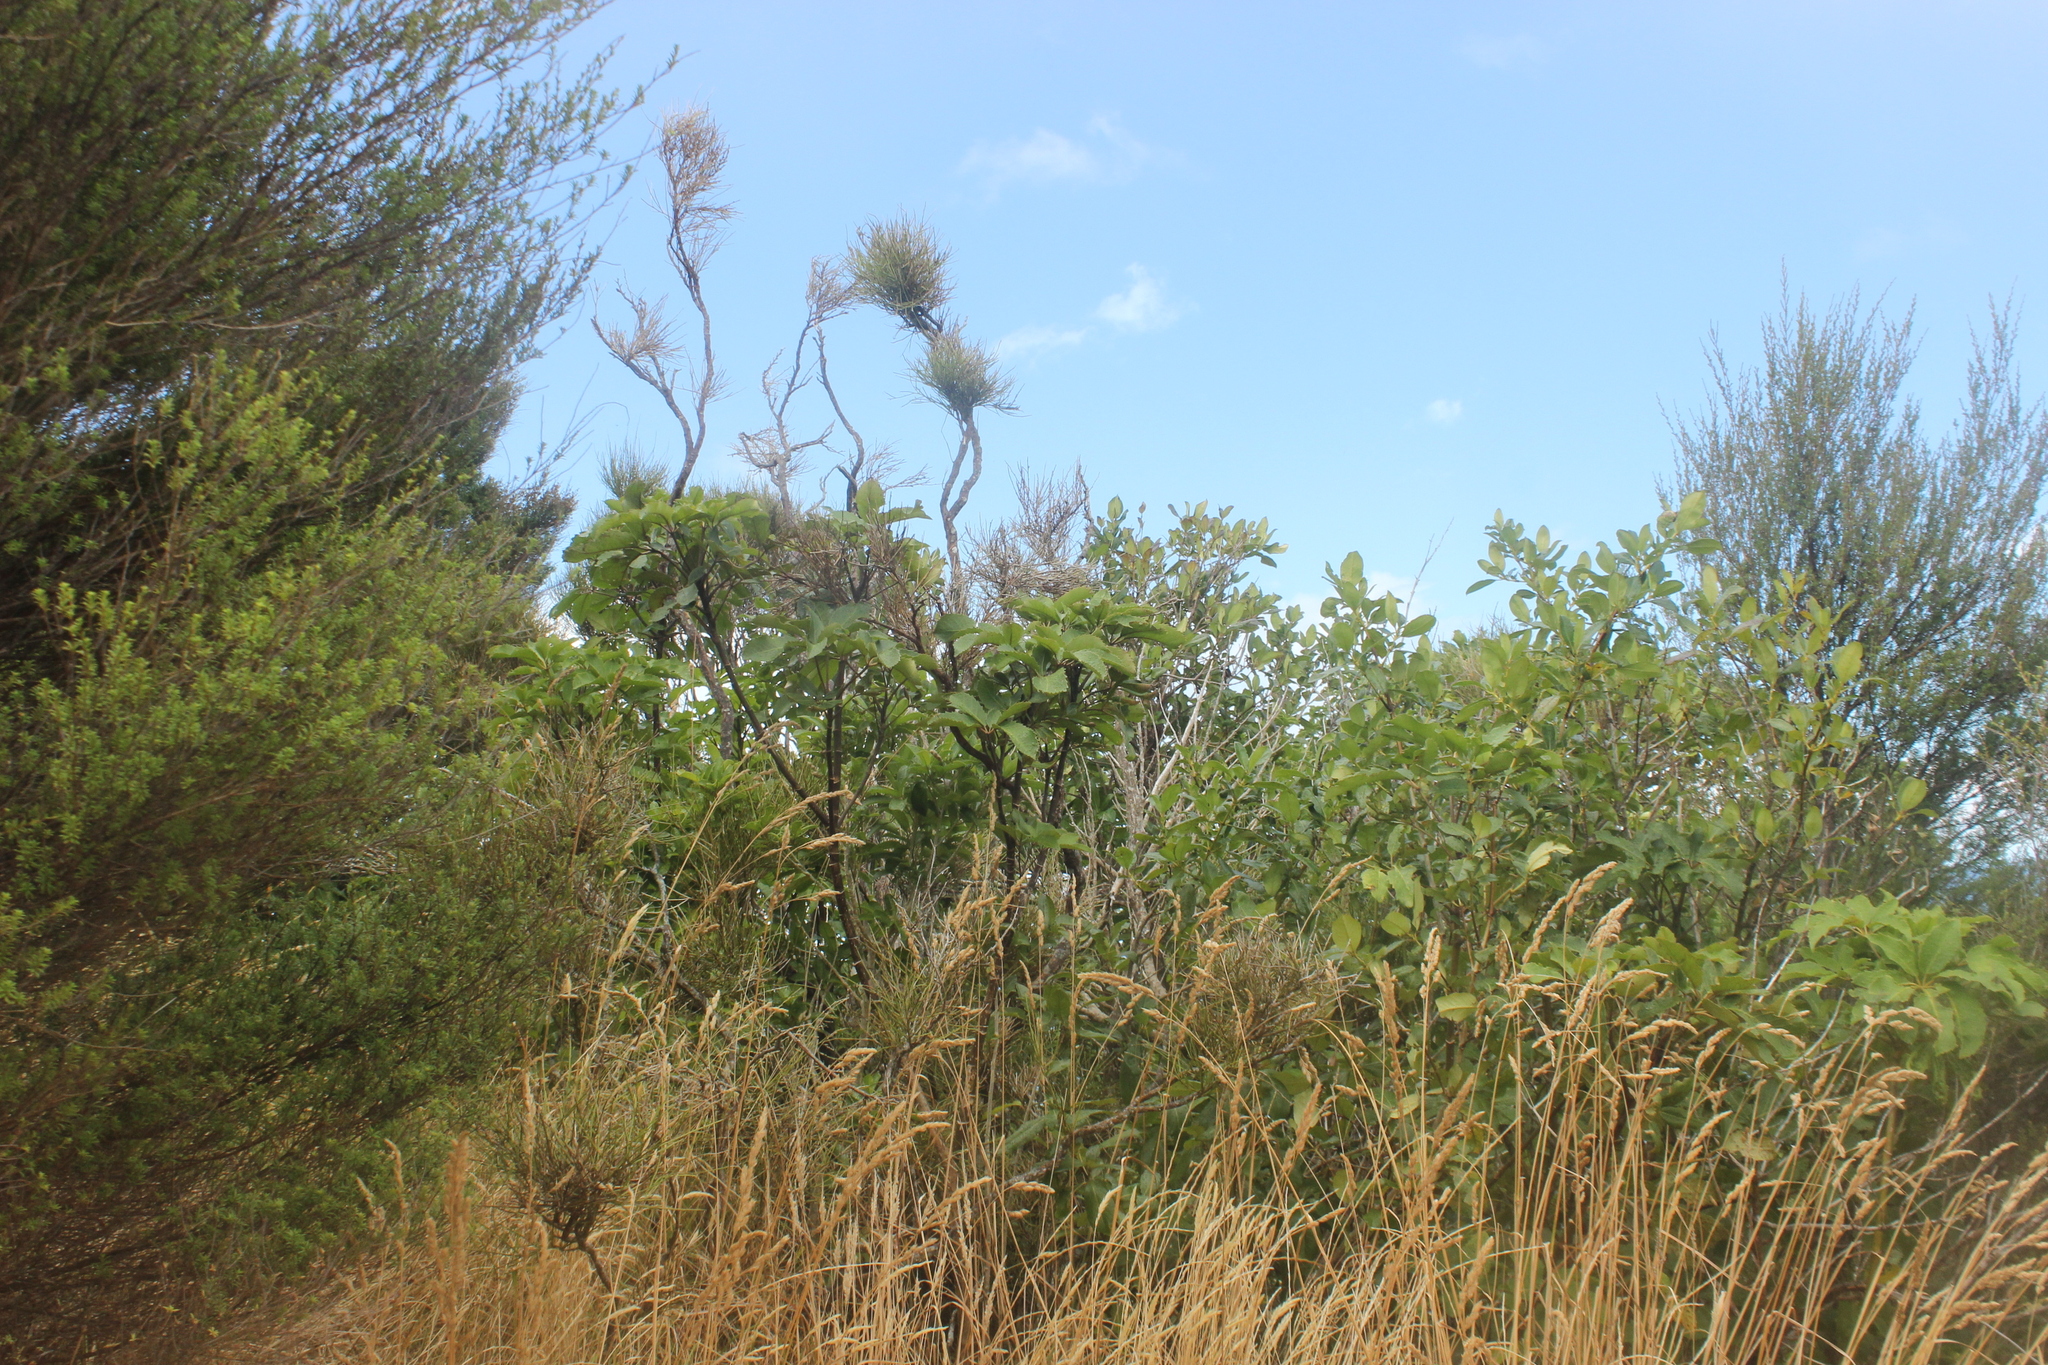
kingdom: Plantae
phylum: Tracheophyta
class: Magnoliopsida
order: Fabales
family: Fabaceae
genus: Carmichaelia
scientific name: Carmichaelia australis
